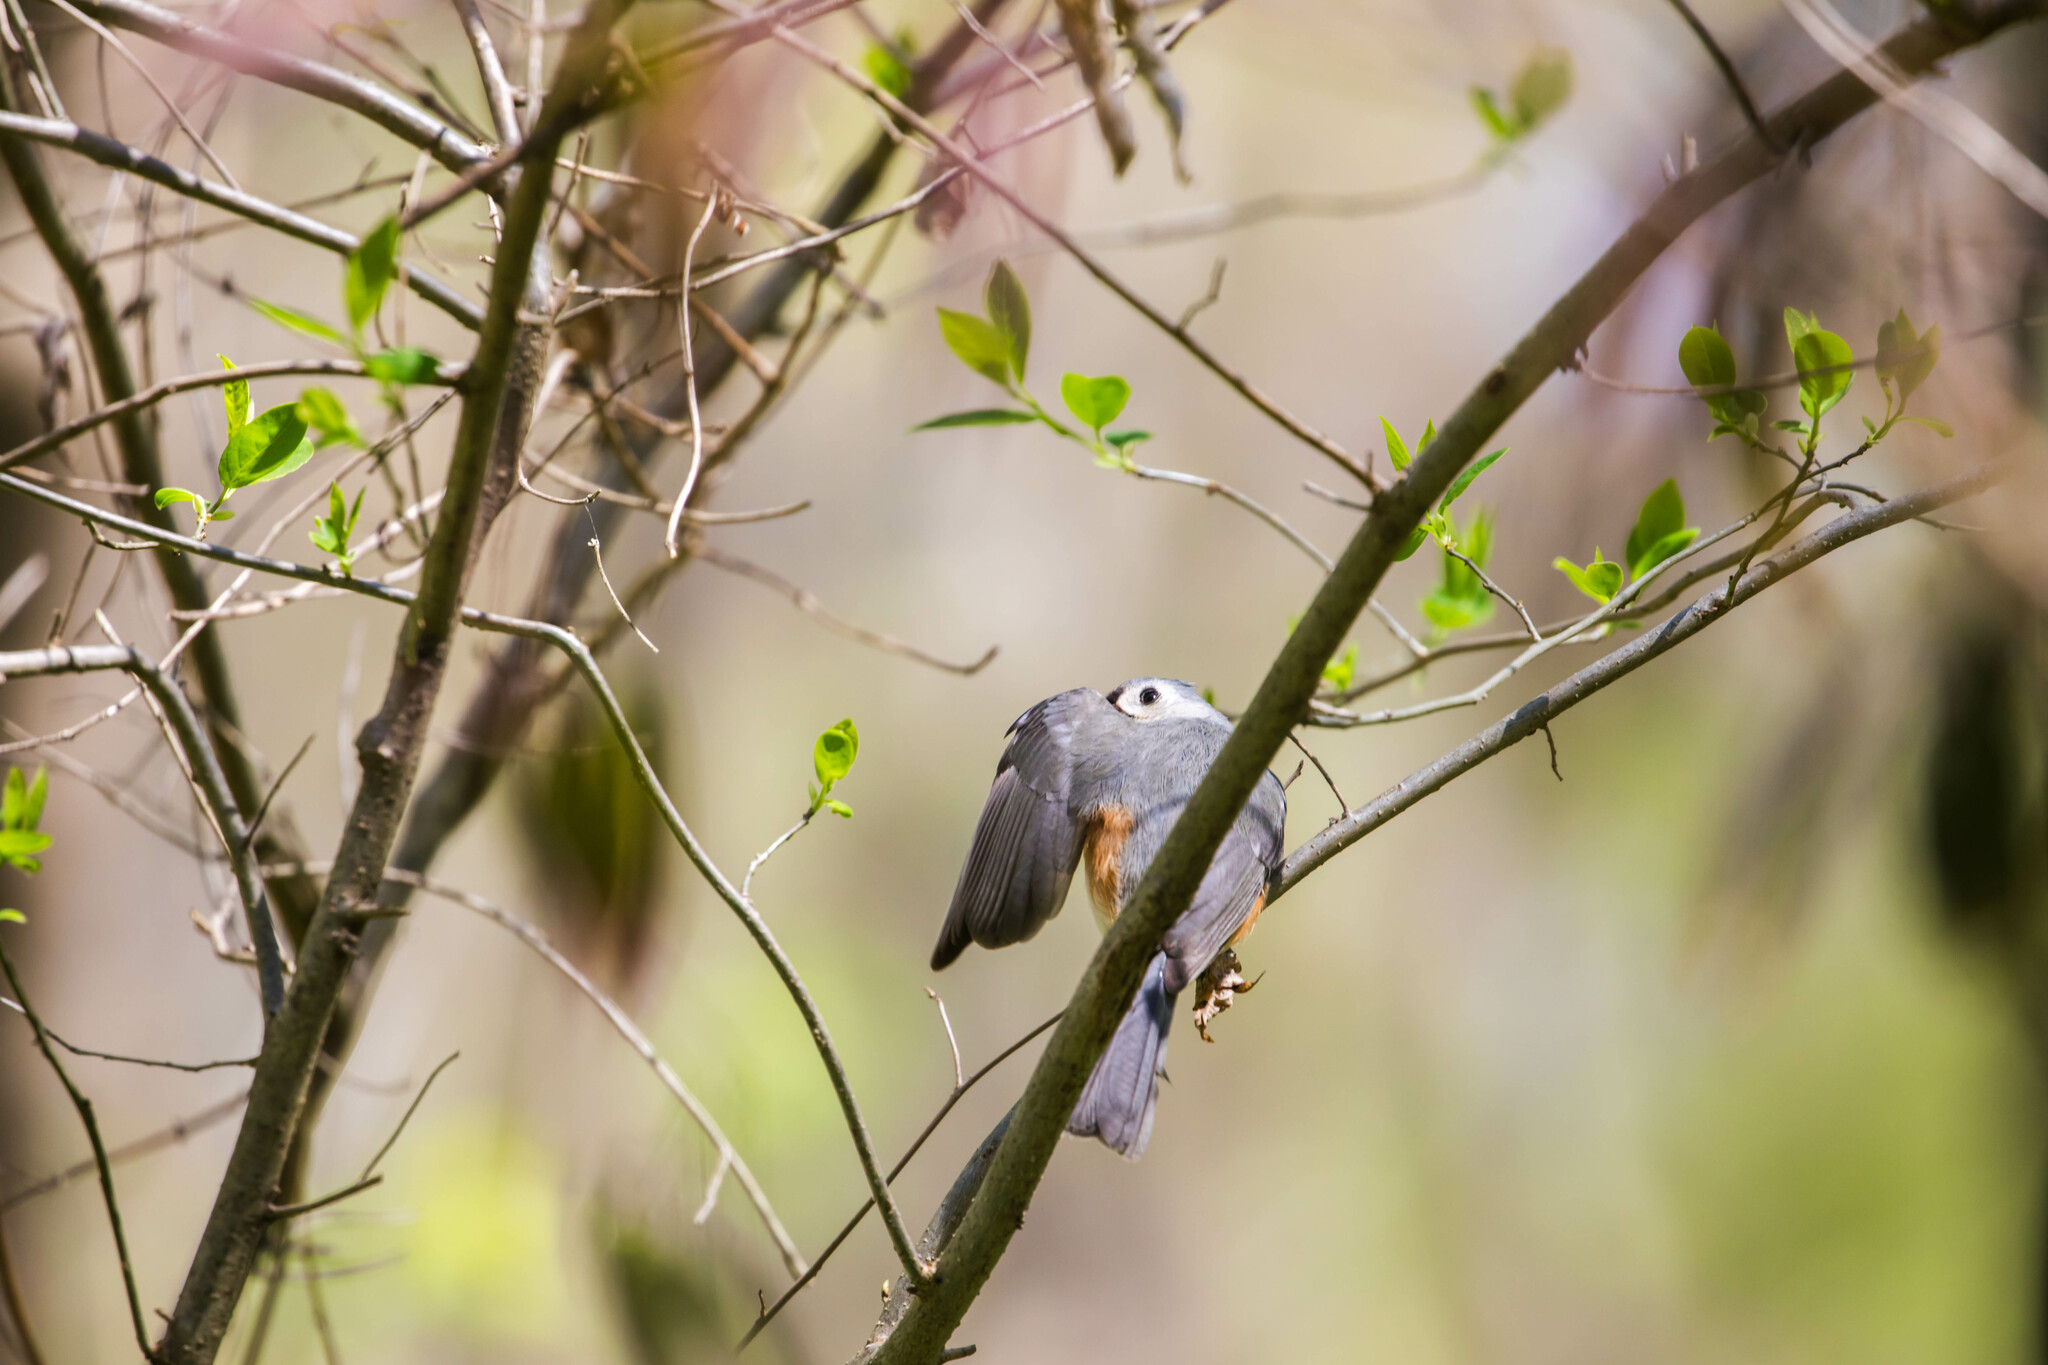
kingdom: Animalia
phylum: Chordata
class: Aves
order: Passeriformes
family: Paridae
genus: Baeolophus
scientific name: Baeolophus bicolor
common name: Tufted titmouse
